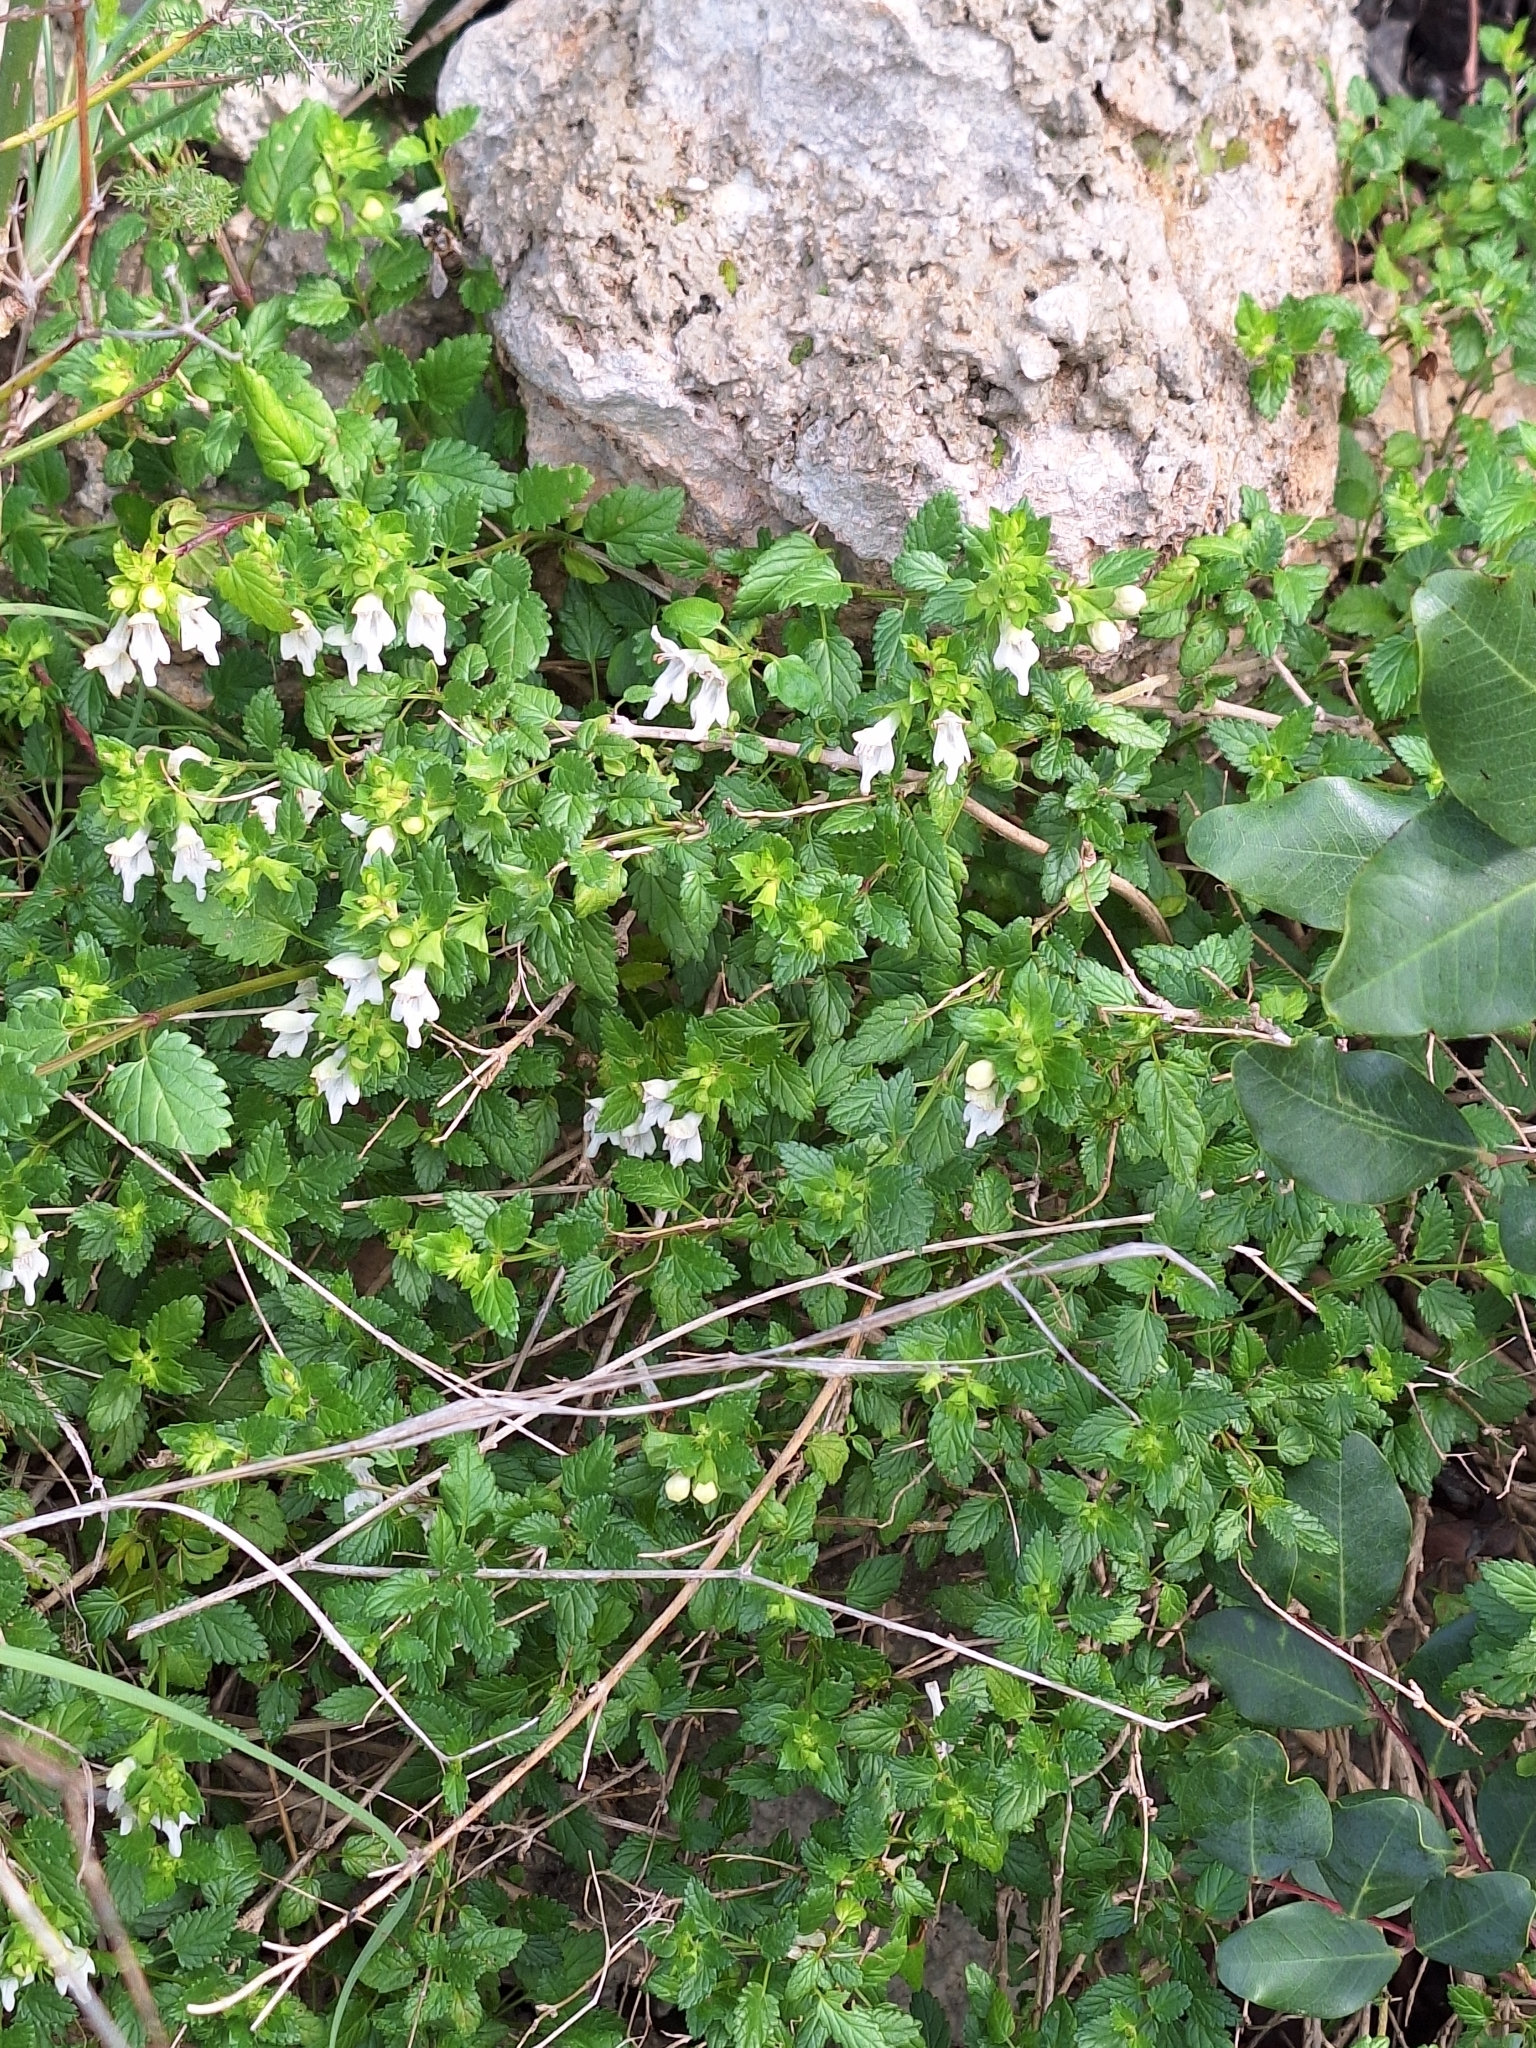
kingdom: Plantae
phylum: Tracheophyta
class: Magnoliopsida
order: Lamiales
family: Lamiaceae
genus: Prasium
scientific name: Prasium majus
